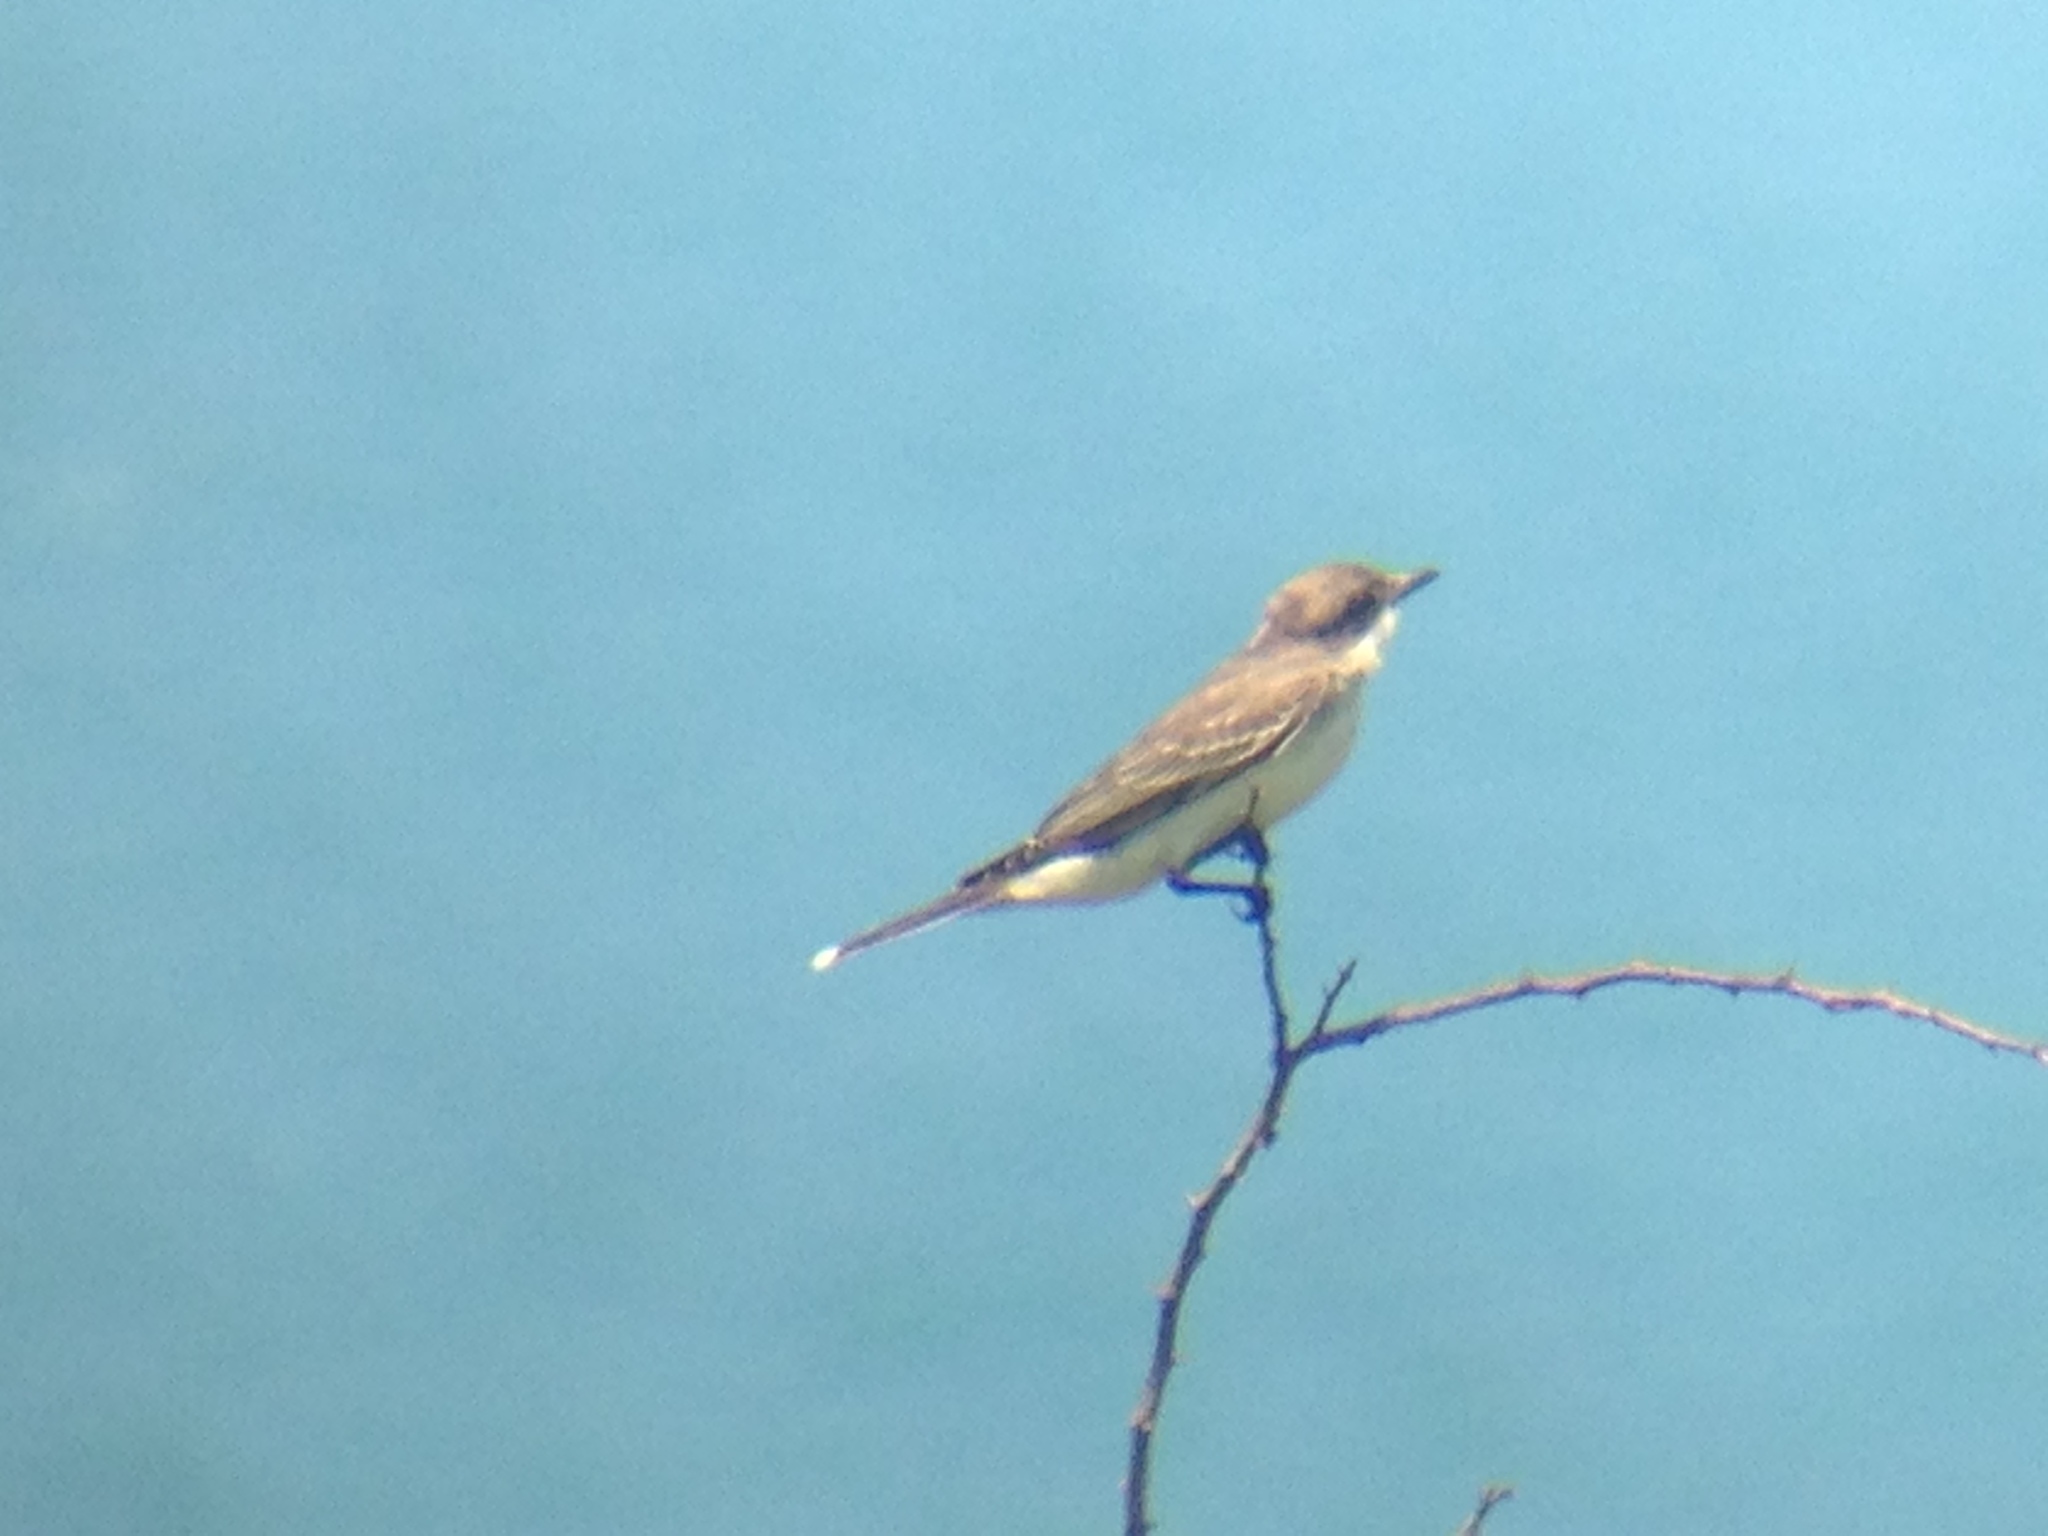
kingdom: Animalia
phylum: Chordata
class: Aves
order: Passeriformes
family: Tyrannidae
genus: Tyrannus
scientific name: Tyrannus tyrannus
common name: Eastern kingbird
